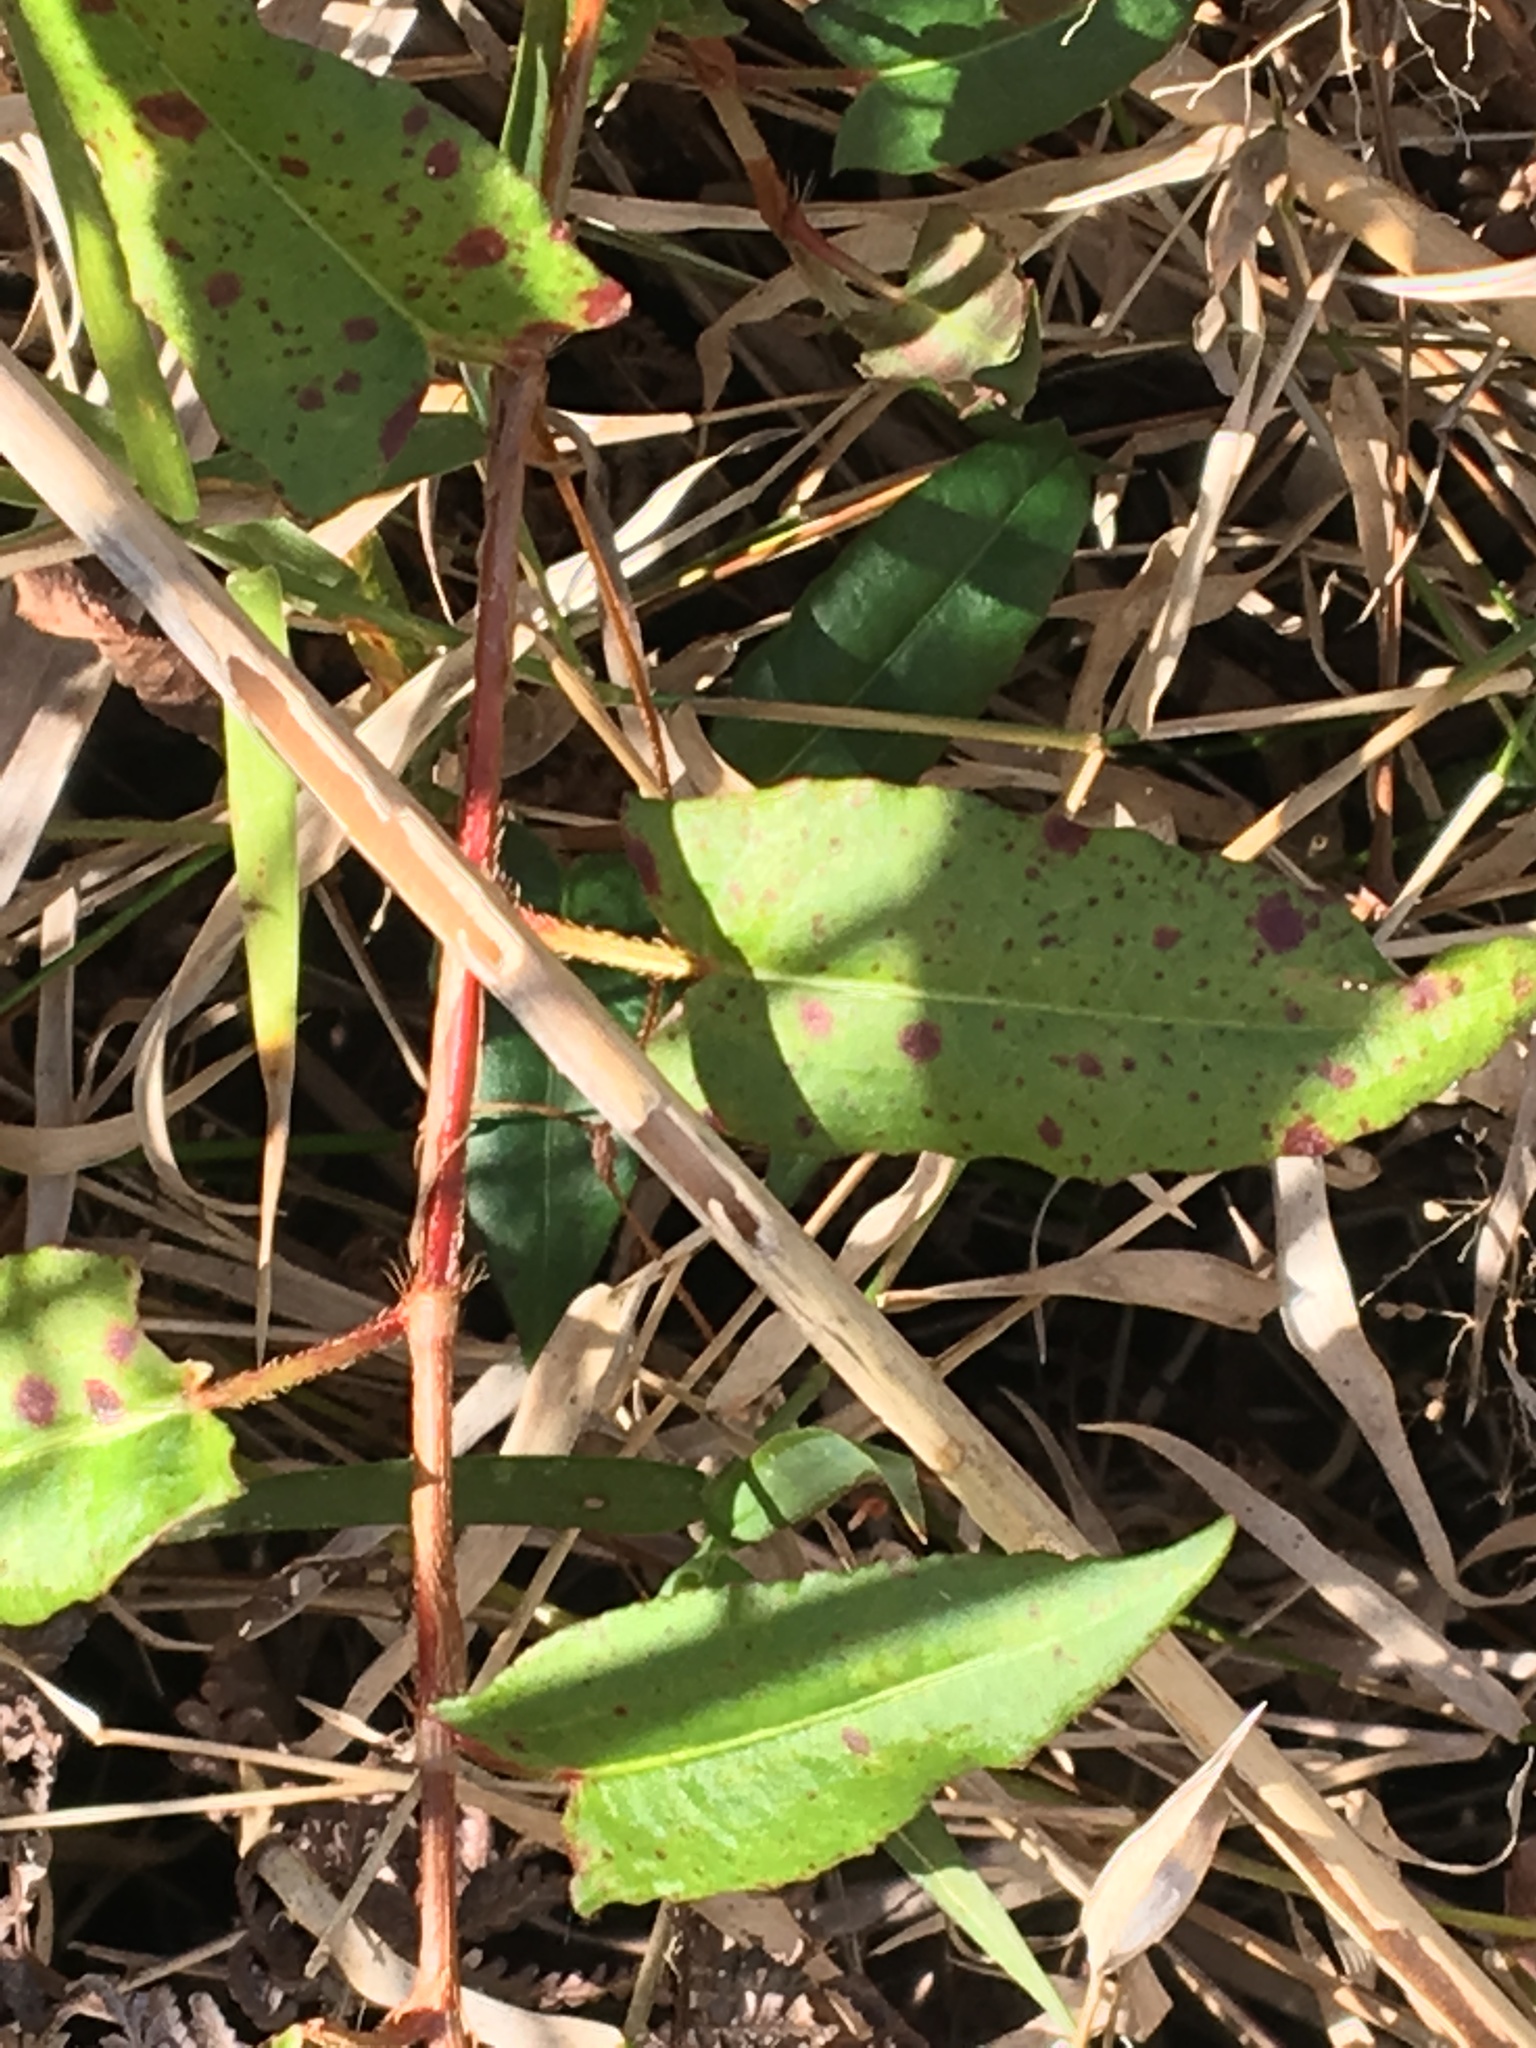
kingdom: Plantae
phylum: Tracheophyta
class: Magnoliopsida
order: Caryophyllales
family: Polygonaceae
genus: Persicaria
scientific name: Persicaria strigosa
